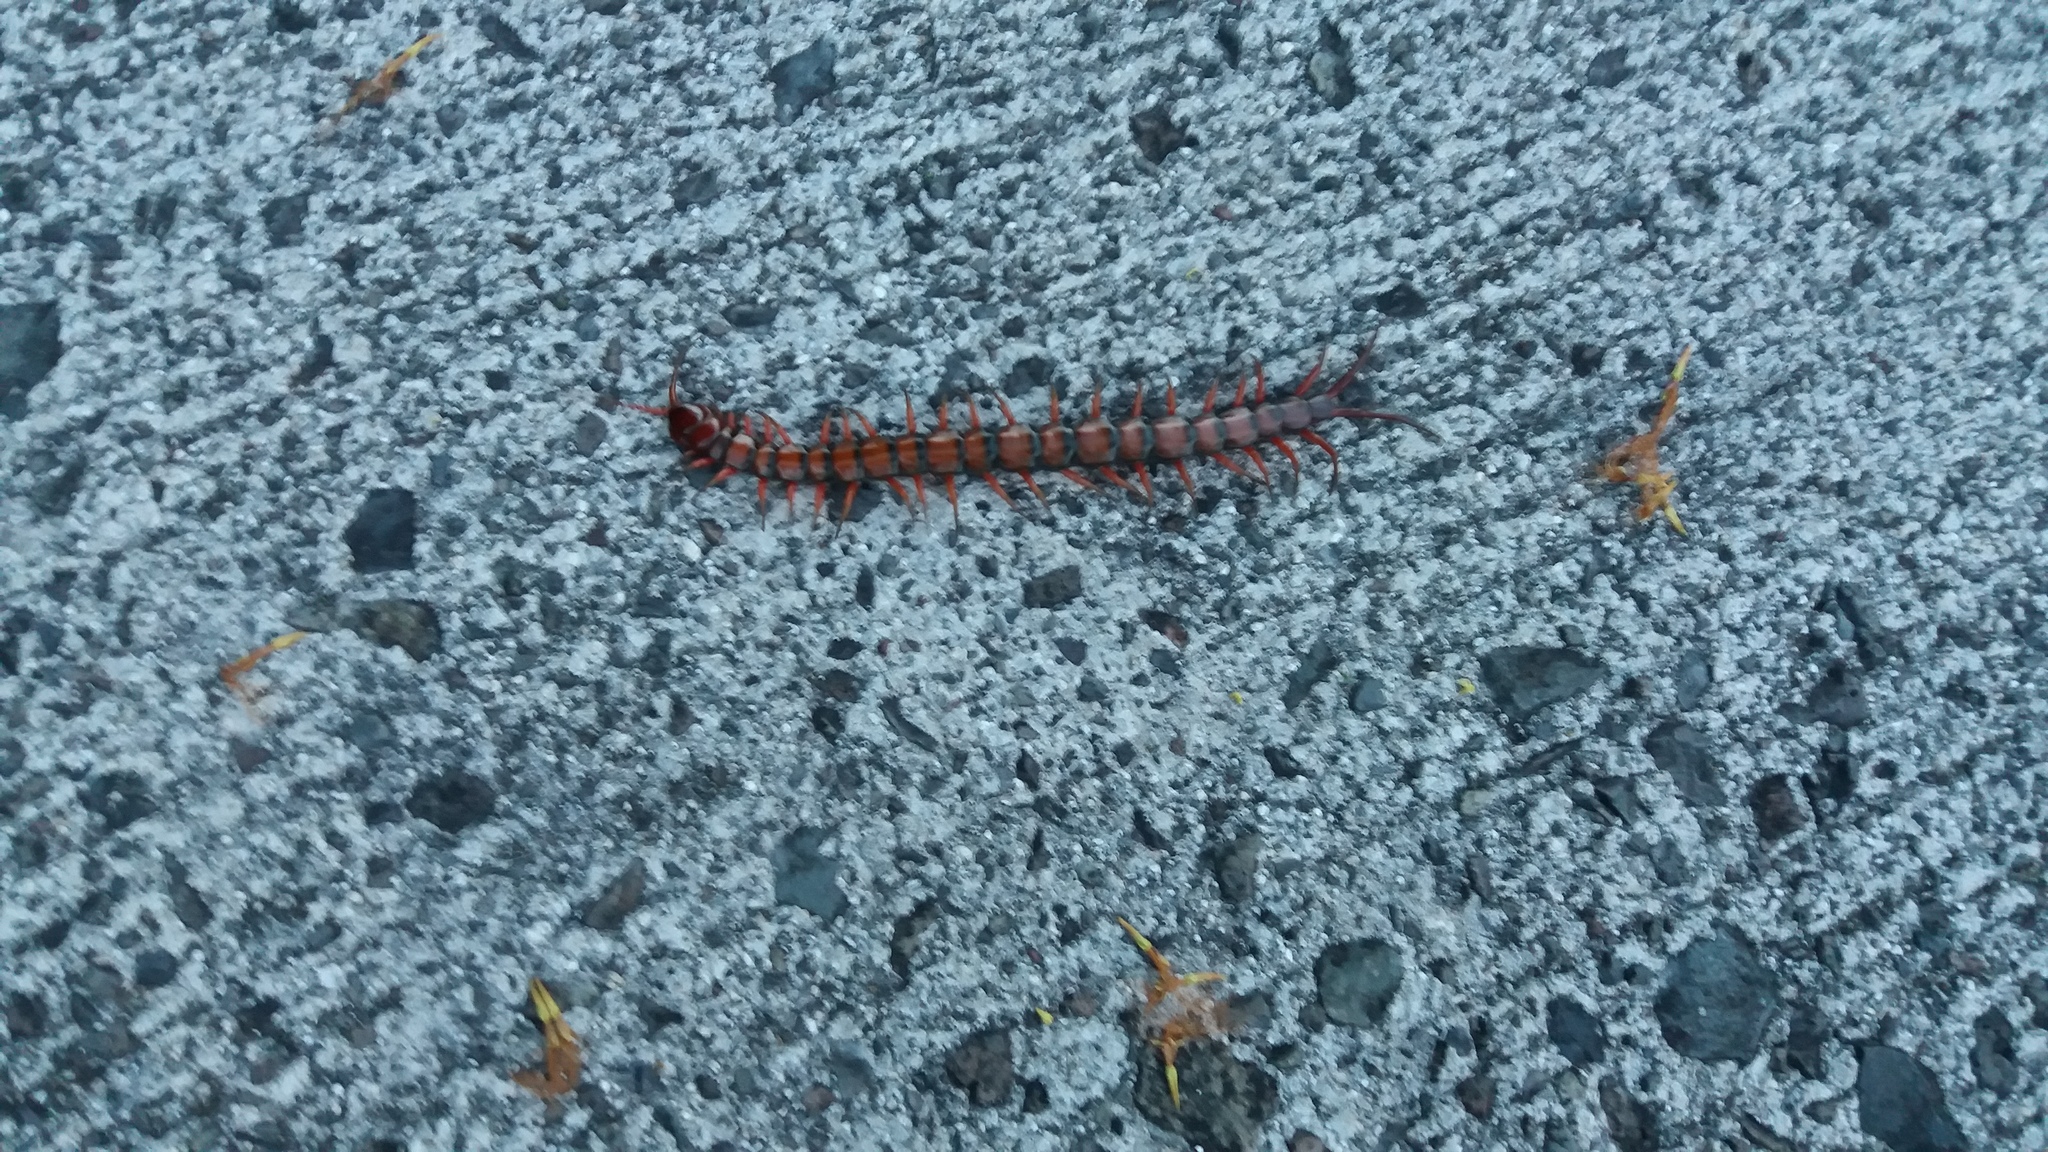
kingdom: Animalia
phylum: Arthropoda
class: Chilopoda
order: Scolopendromorpha
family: Scolopendridae
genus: Scolopendra
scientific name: Scolopendra subspinipes
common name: Centipede
